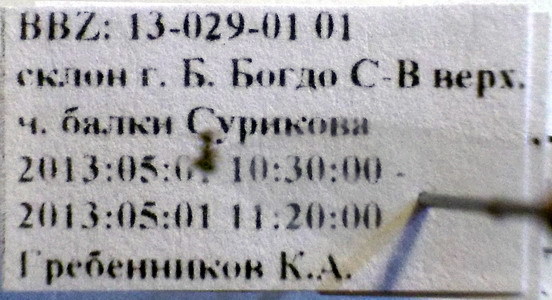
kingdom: Animalia
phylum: Arthropoda
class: Insecta
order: Hymenoptera
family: Formicidae
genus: Plagiolepis
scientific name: Plagiolepis pallescens
